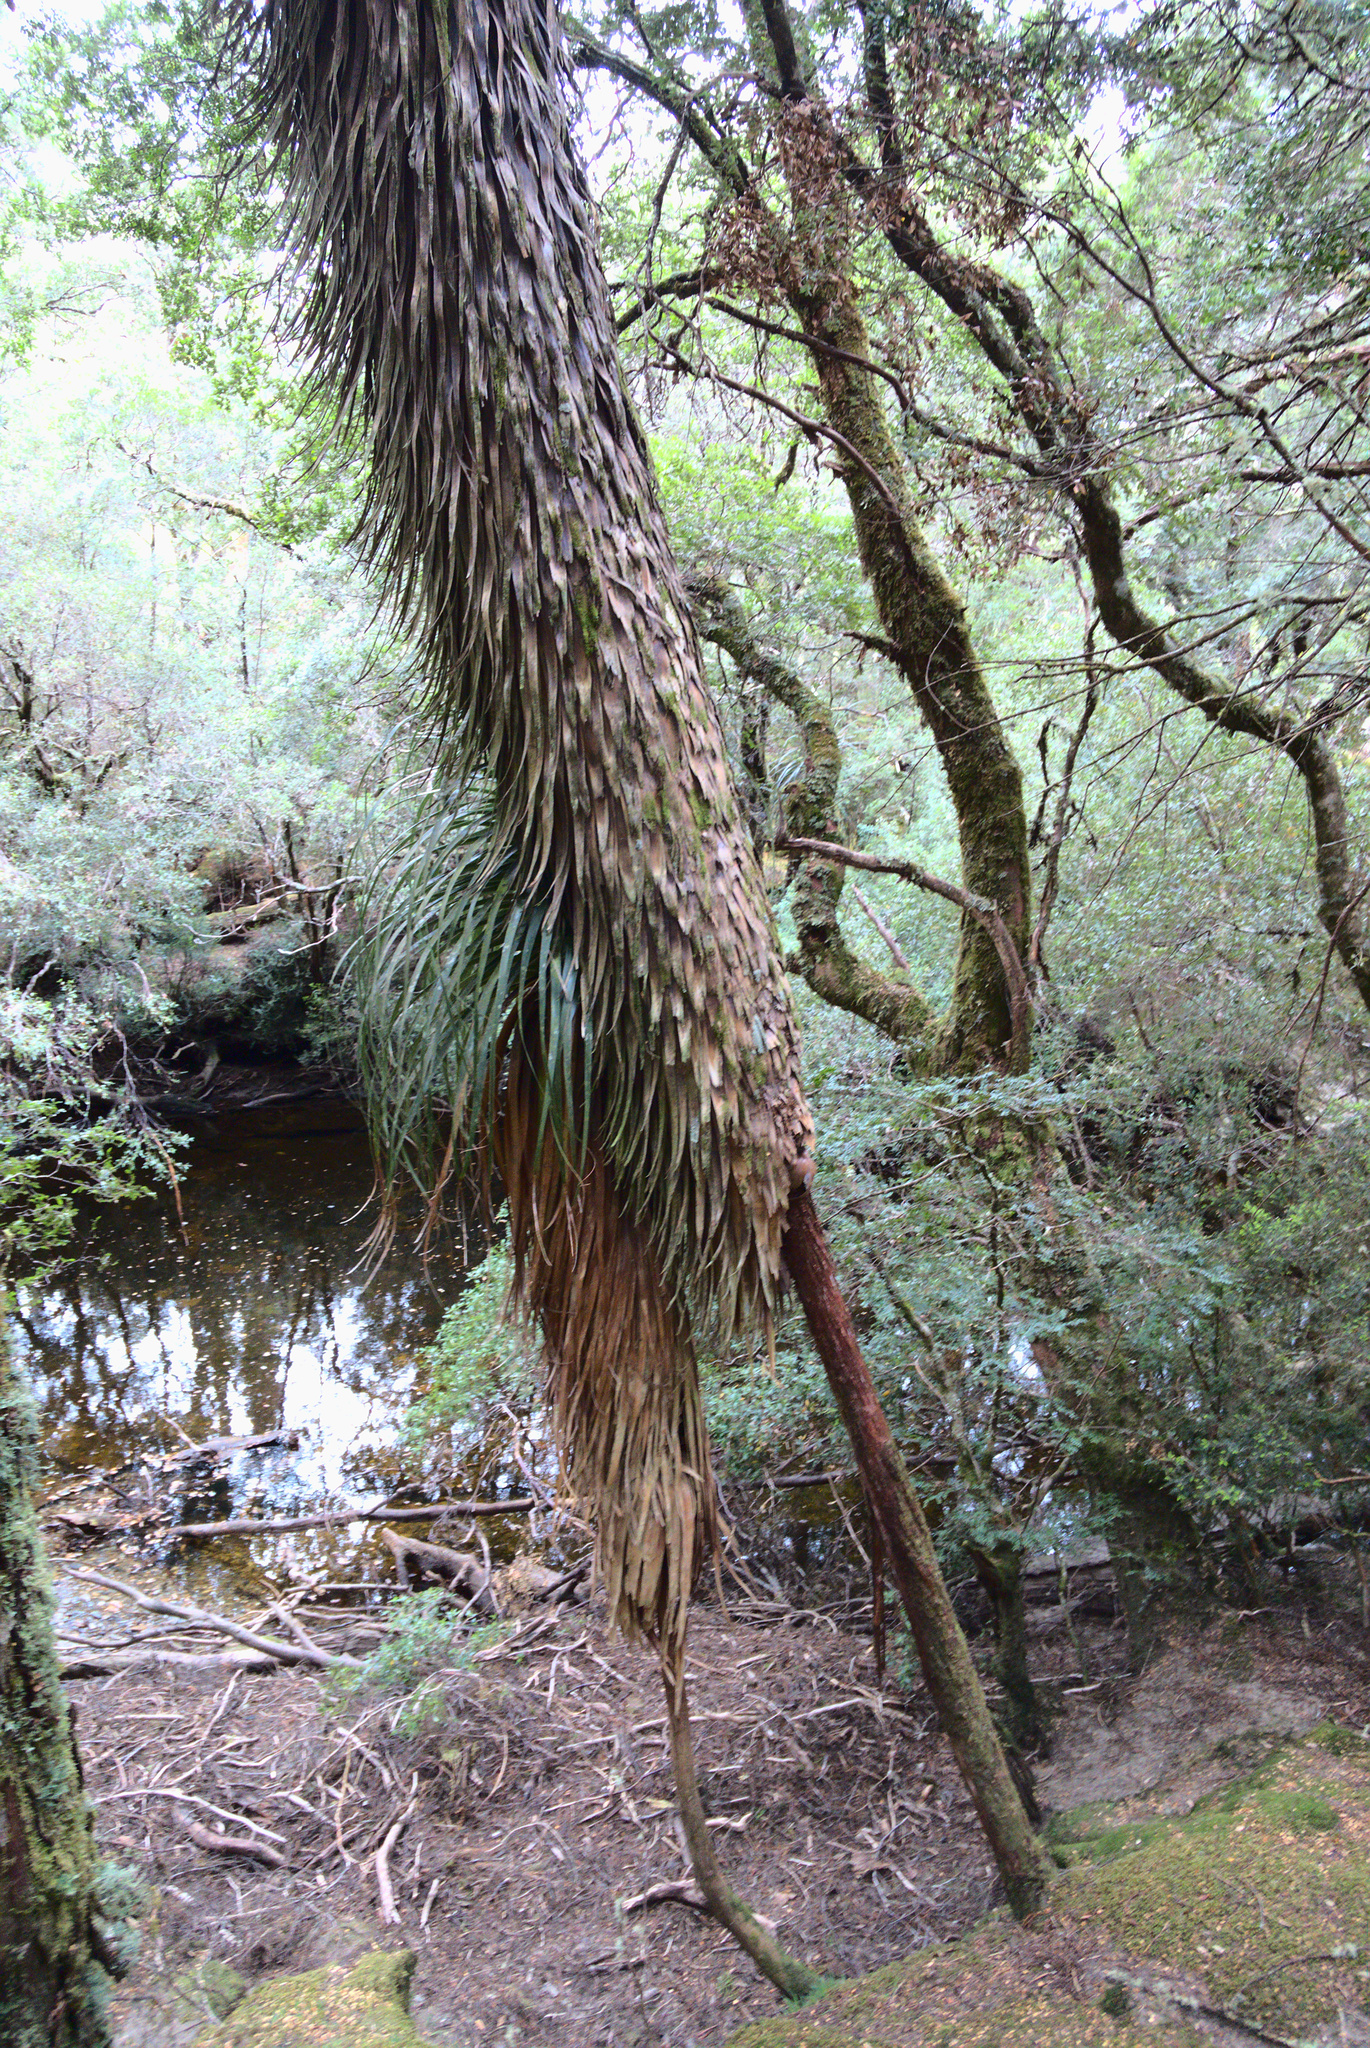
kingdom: Plantae
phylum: Tracheophyta
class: Magnoliopsida
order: Ericales
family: Ericaceae
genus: Dracophyllum
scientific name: Dracophyllum pandanifolium
